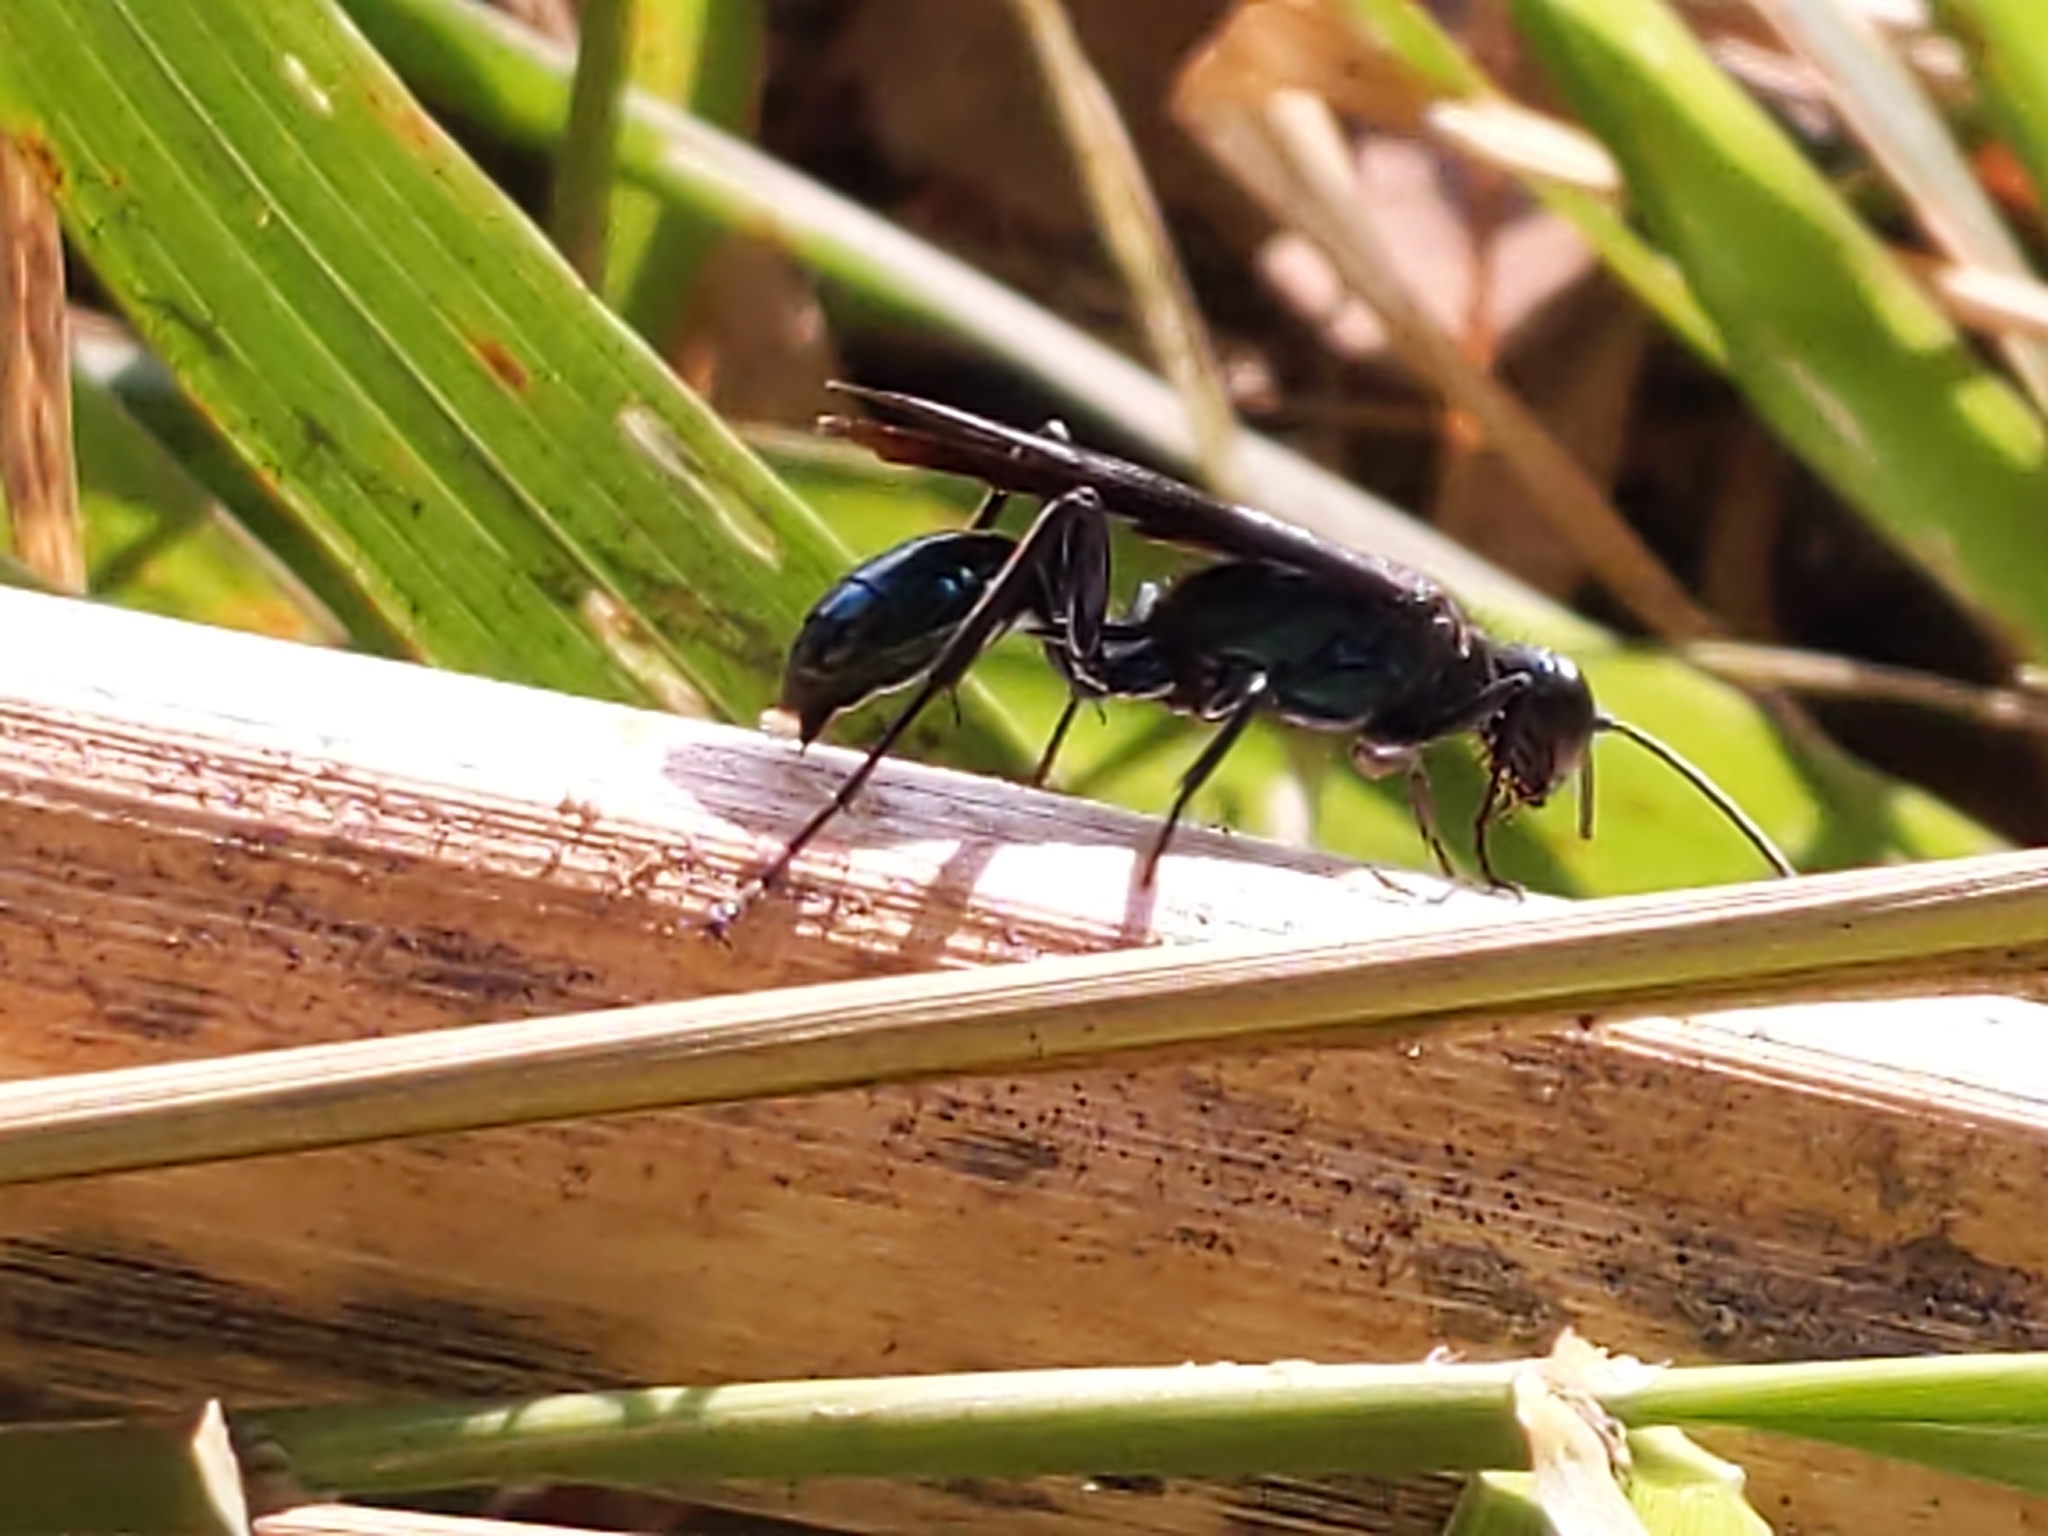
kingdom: Animalia
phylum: Arthropoda
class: Insecta
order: Hymenoptera
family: Sphecidae
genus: Chalybion
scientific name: Chalybion californicum
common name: Mud dauber
